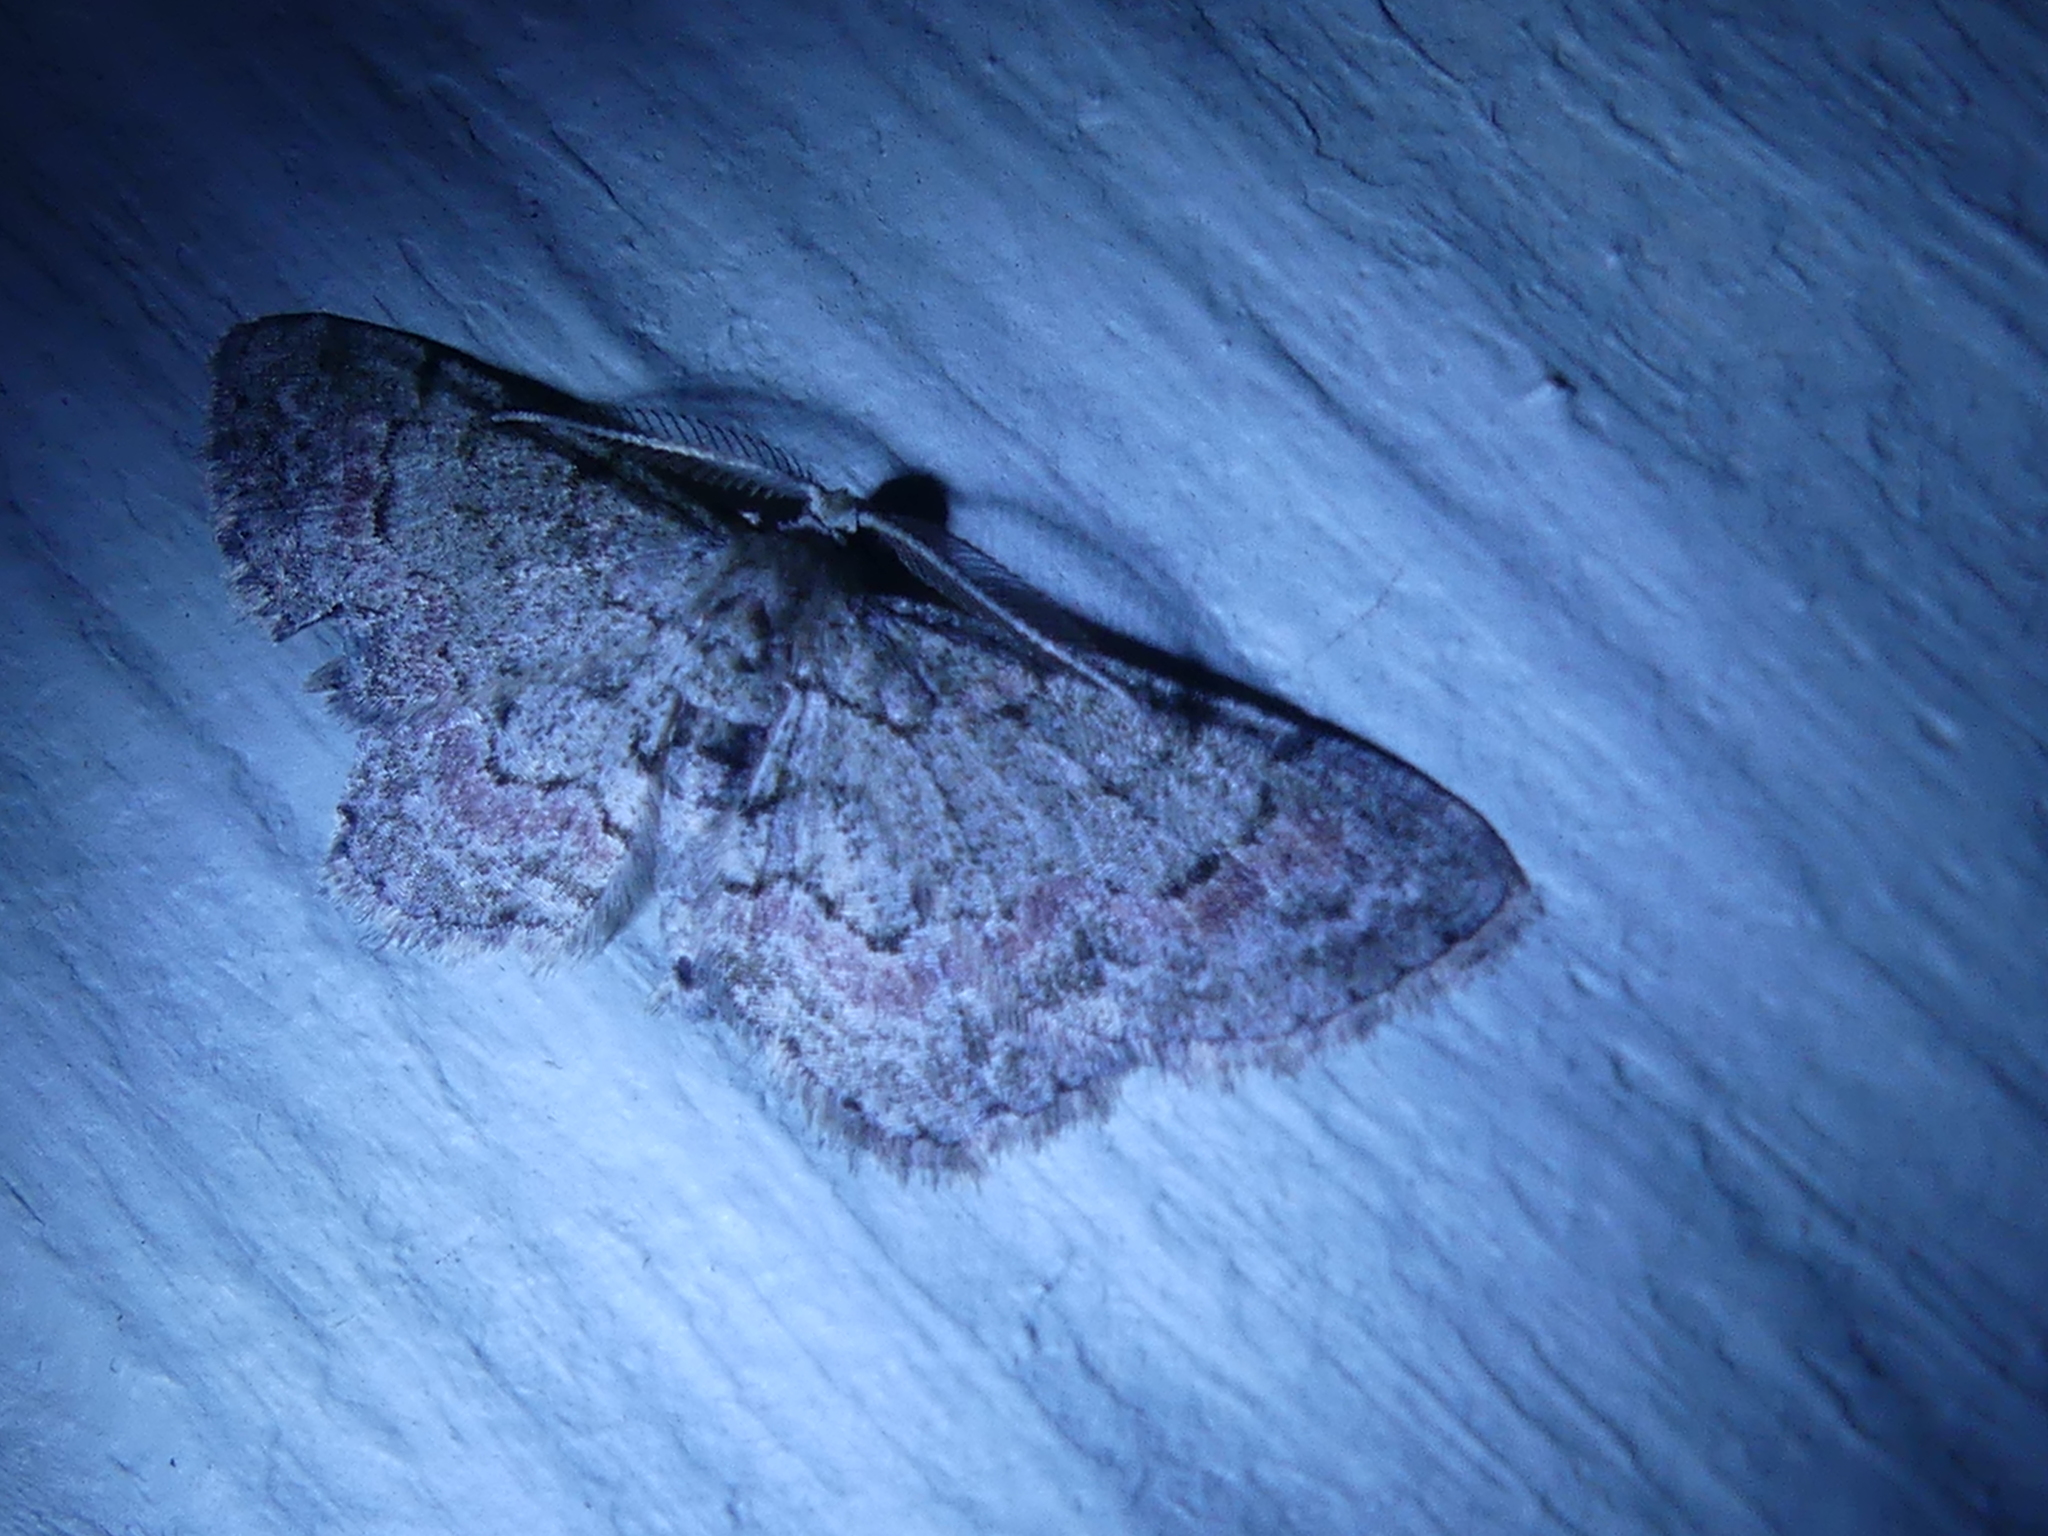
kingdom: Animalia
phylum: Arthropoda
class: Insecta
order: Lepidoptera
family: Geometridae
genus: Glenoides
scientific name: Glenoides texanaria
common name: Texas gray
